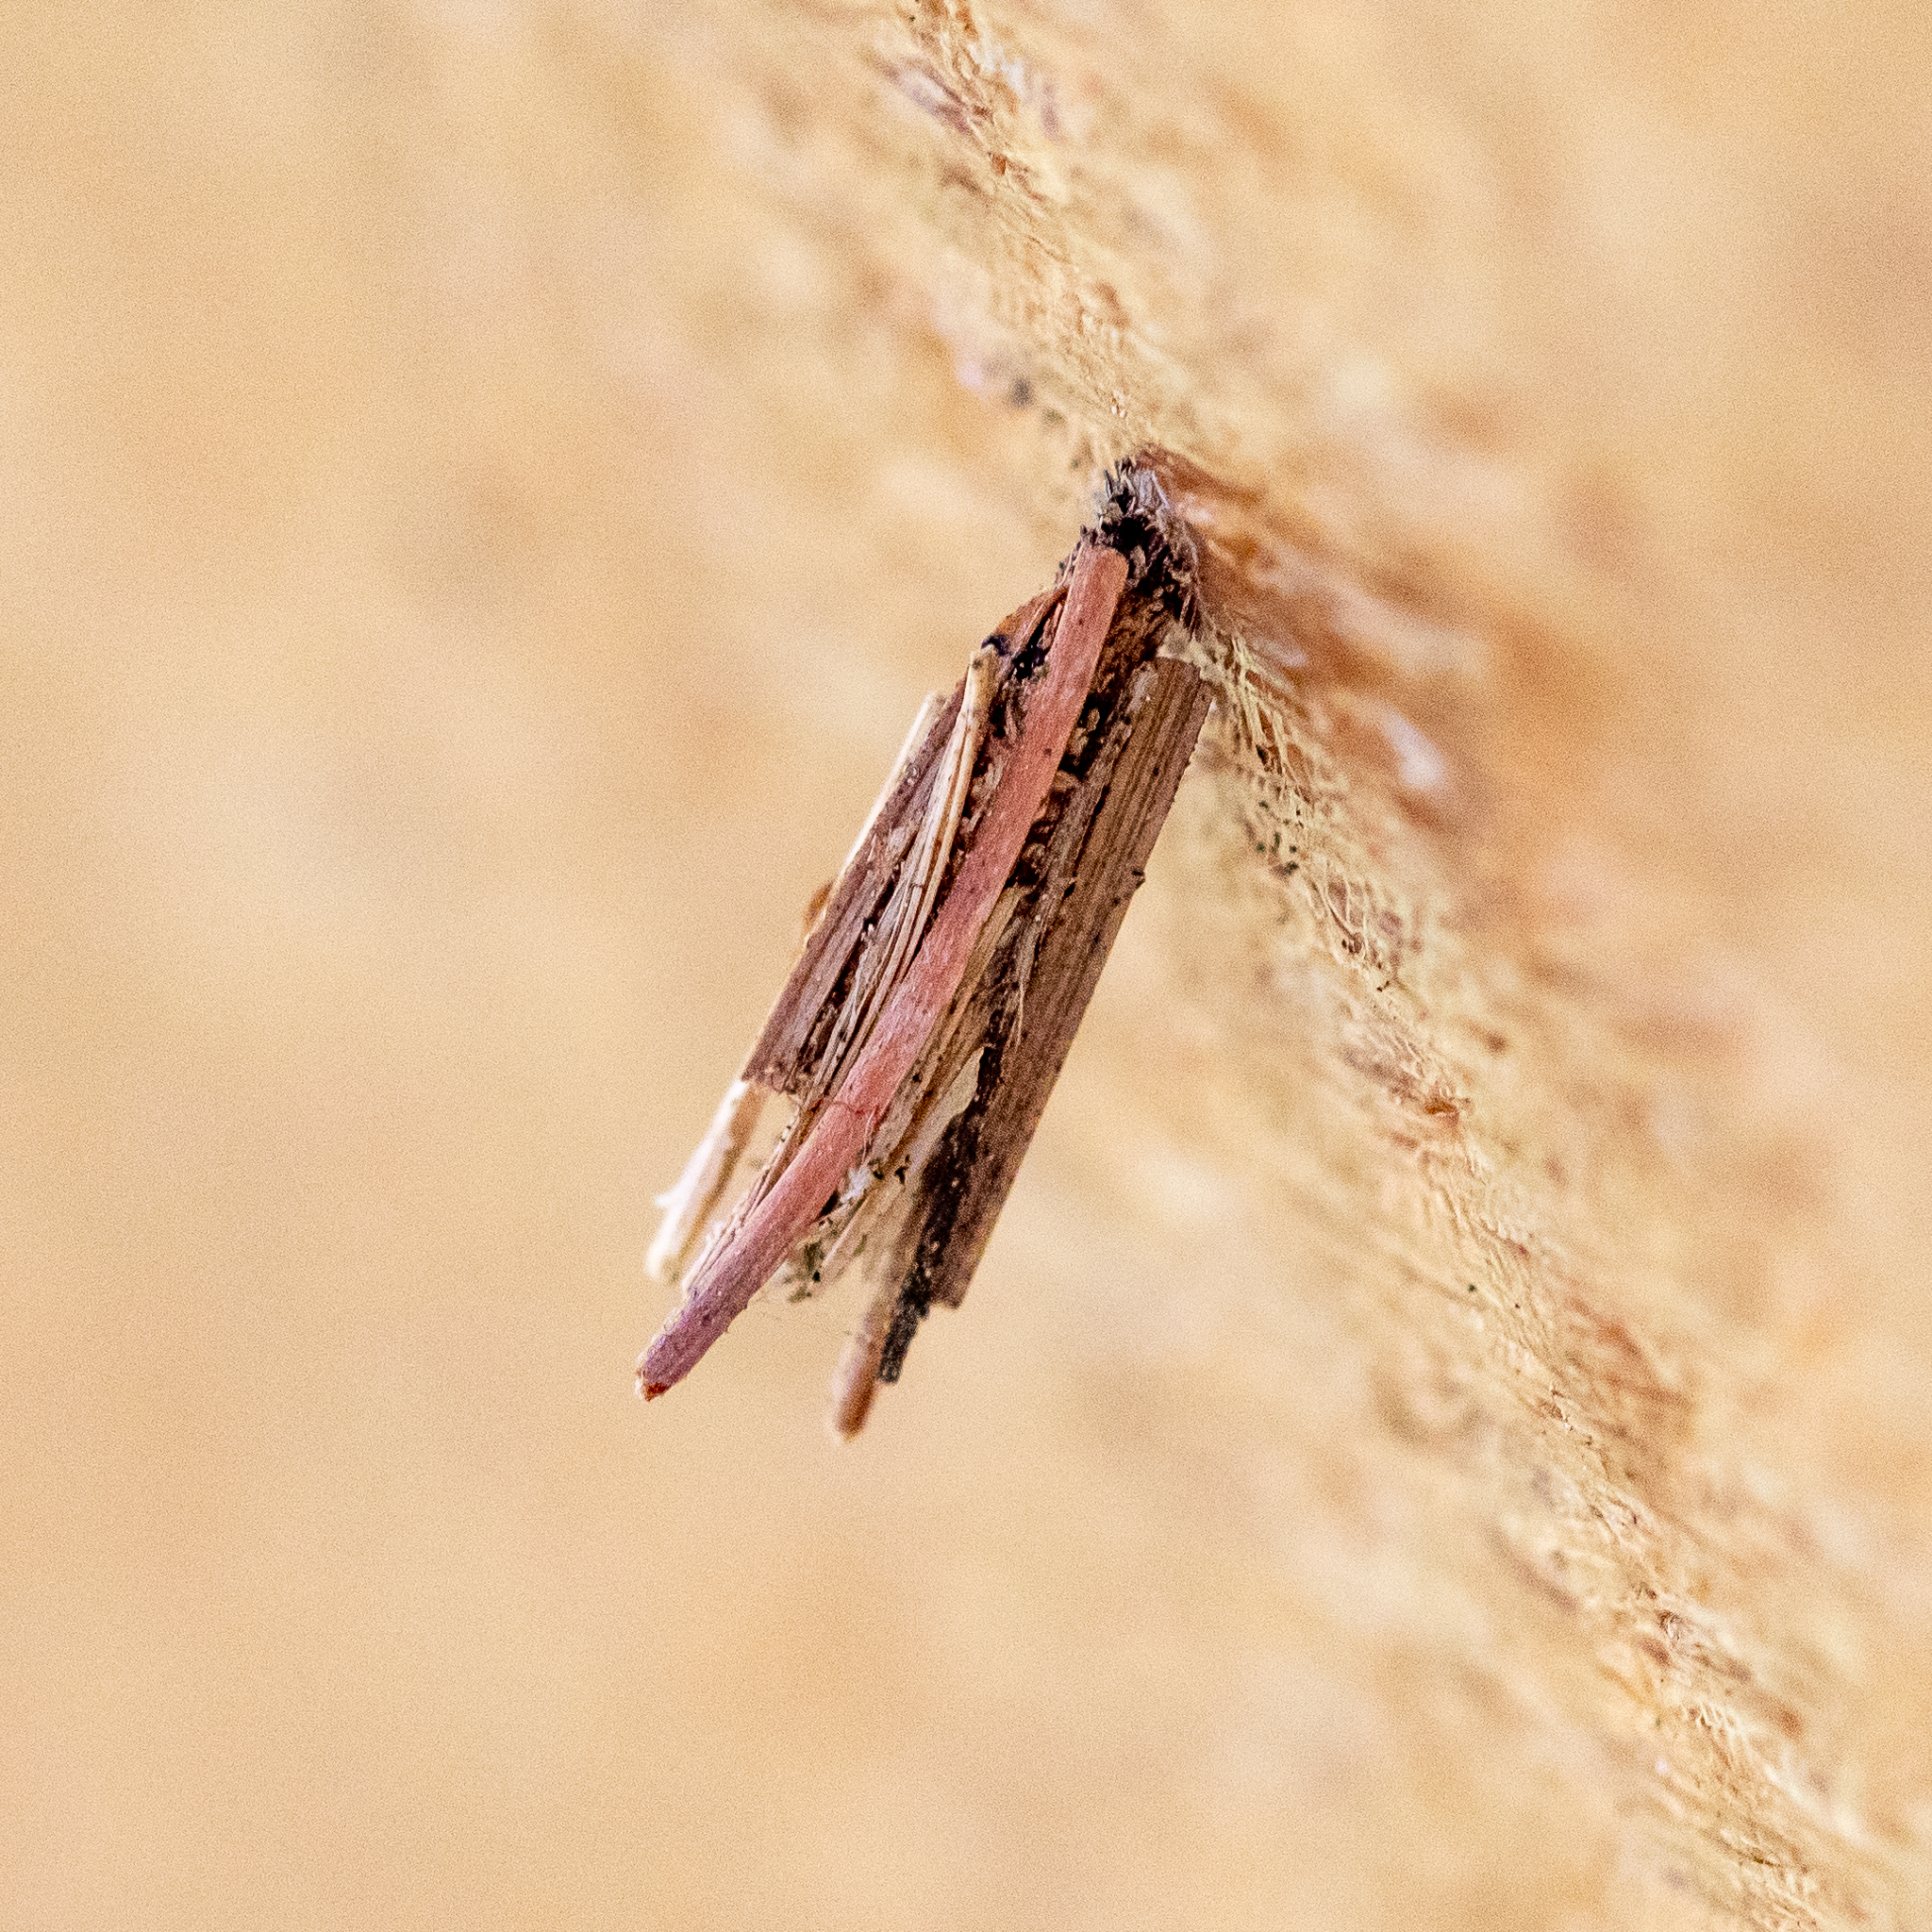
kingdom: Animalia
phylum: Arthropoda
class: Insecta
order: Lepidoptera
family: Psychidae
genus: Psyche
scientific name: Psyche casta
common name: Common sweep
